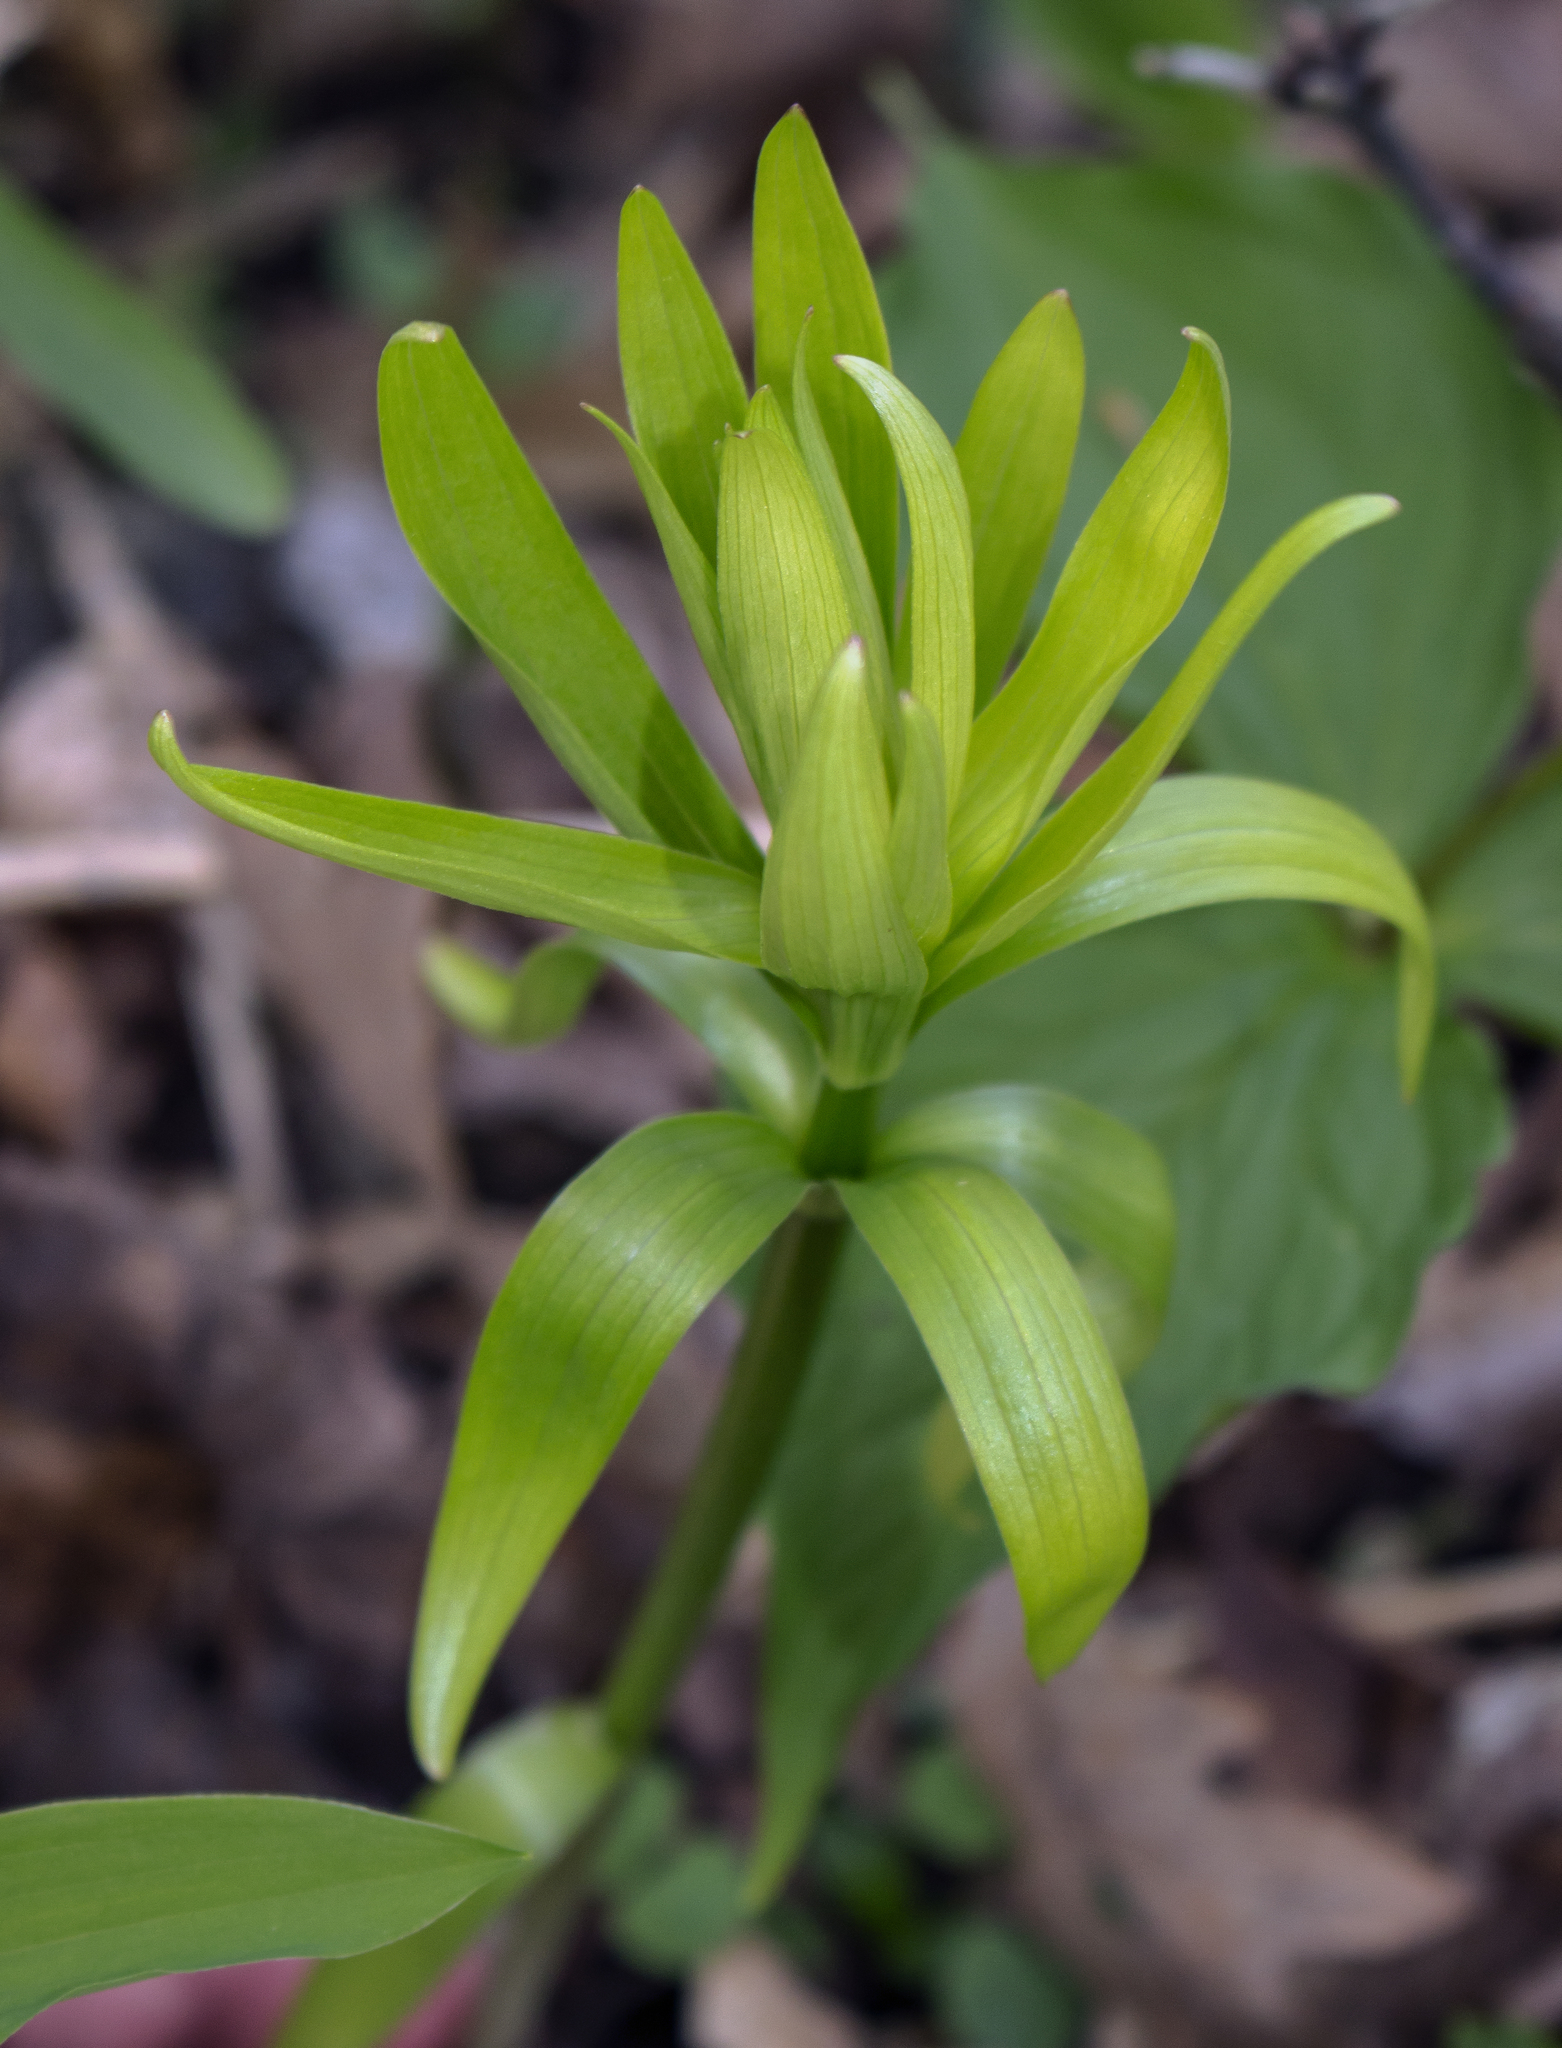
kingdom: Plantae
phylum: Tracheophyta
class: Liliopsida
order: Liliales
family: Liliaceae
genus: Lilium
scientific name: Lilium michiganense
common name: Michigan lily
